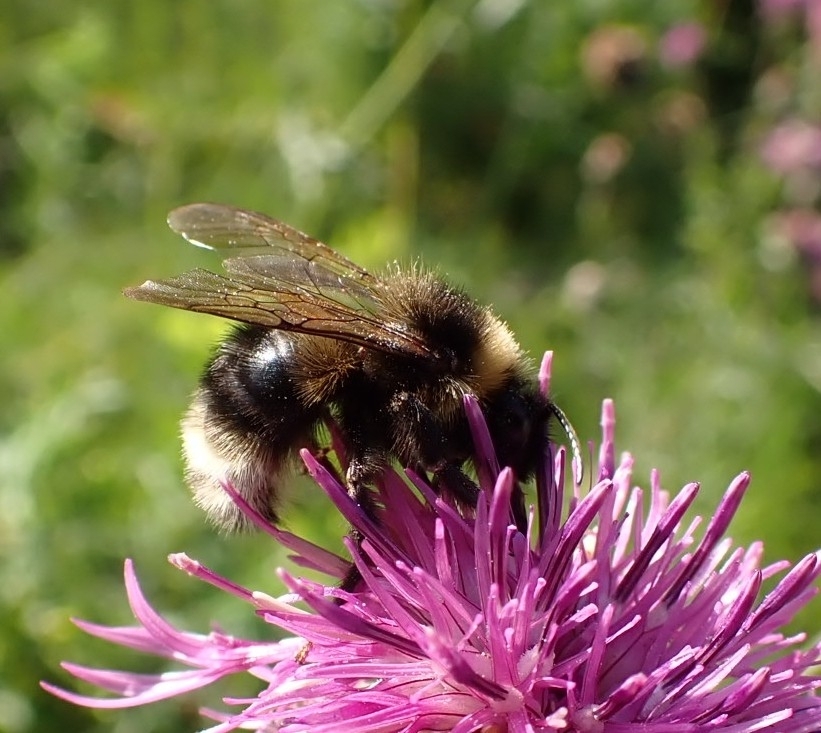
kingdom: Animalia
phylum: Arthropoda
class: Insecta
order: Hymenoptera
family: Apidae
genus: Bombus
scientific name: Bombus bohemicus
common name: Gypsy cuckoo bee
